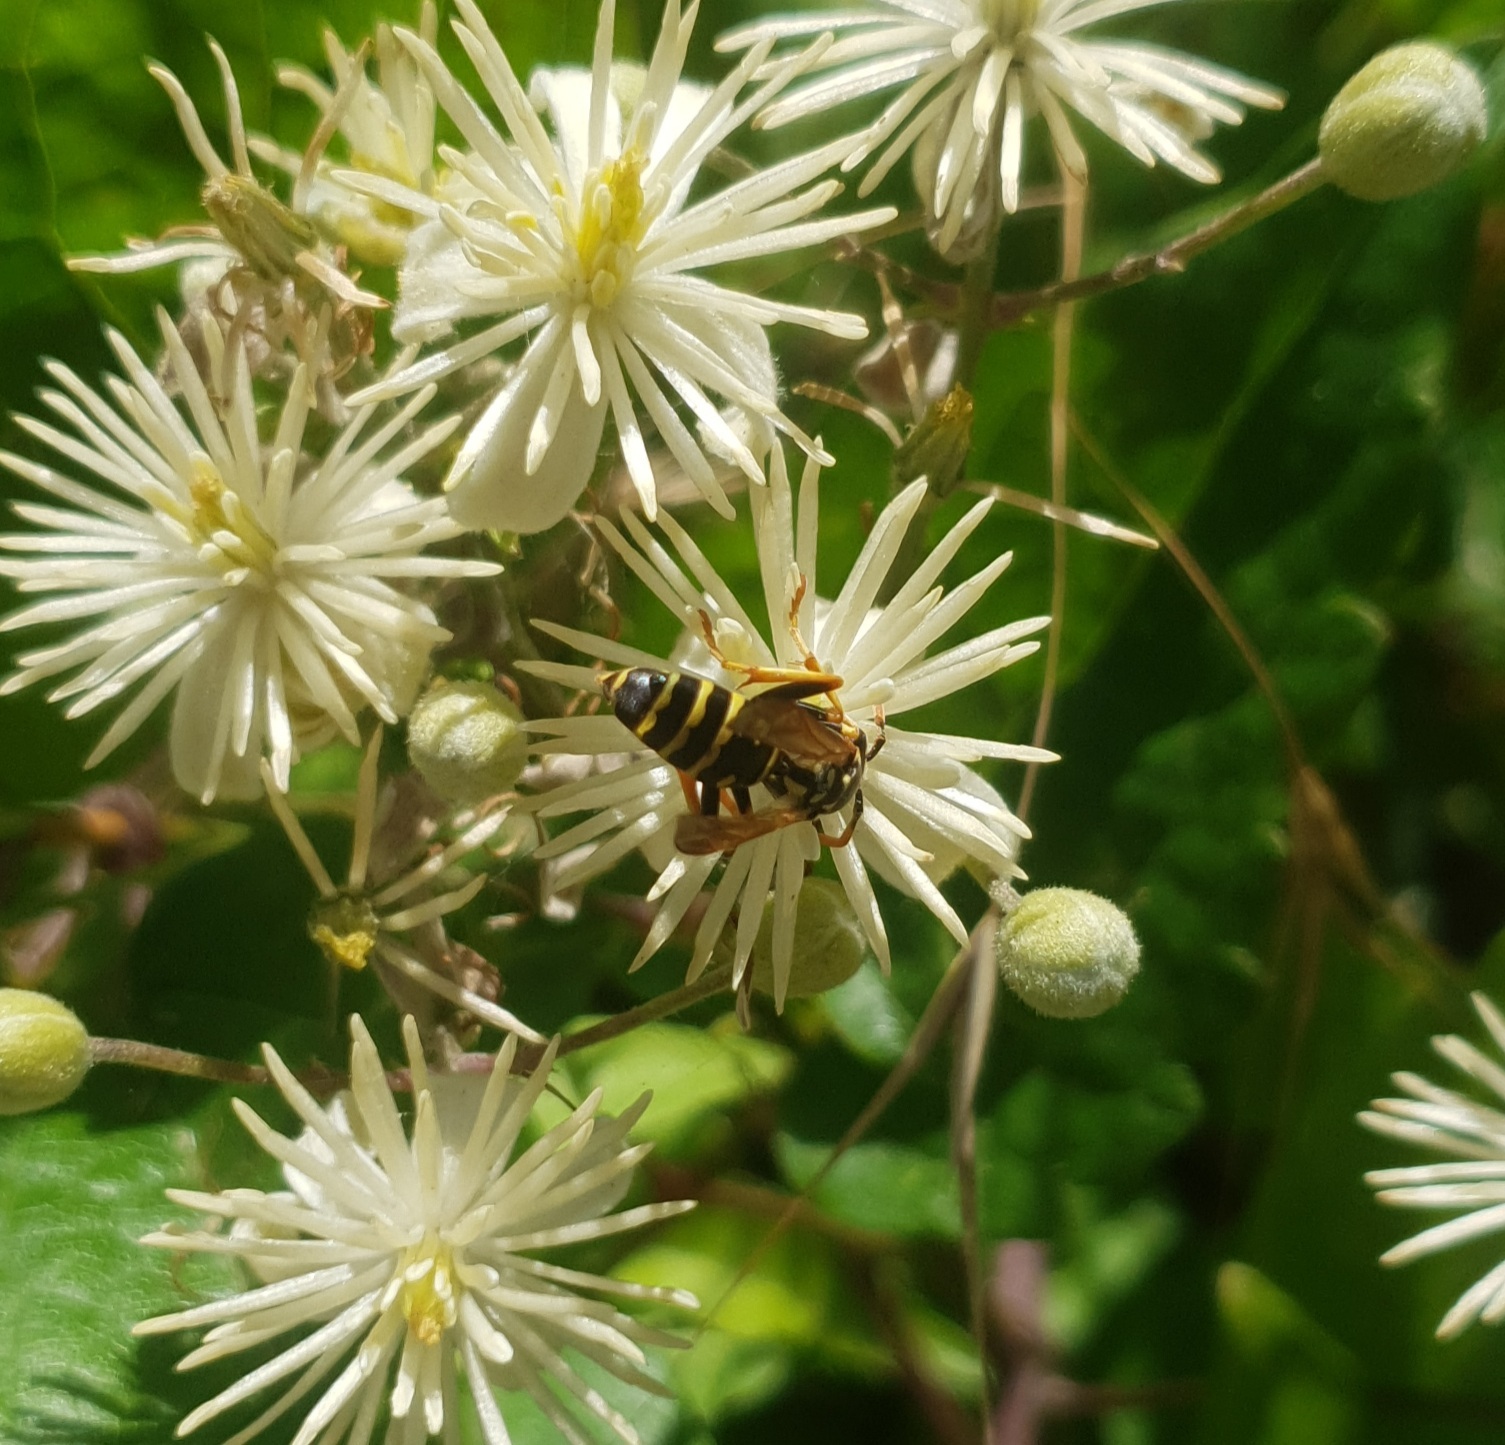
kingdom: Animalia
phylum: Arthropoda
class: Insecta
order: Strepsiptera
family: Xenidae
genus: Xenos
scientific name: Xenos vesparum
